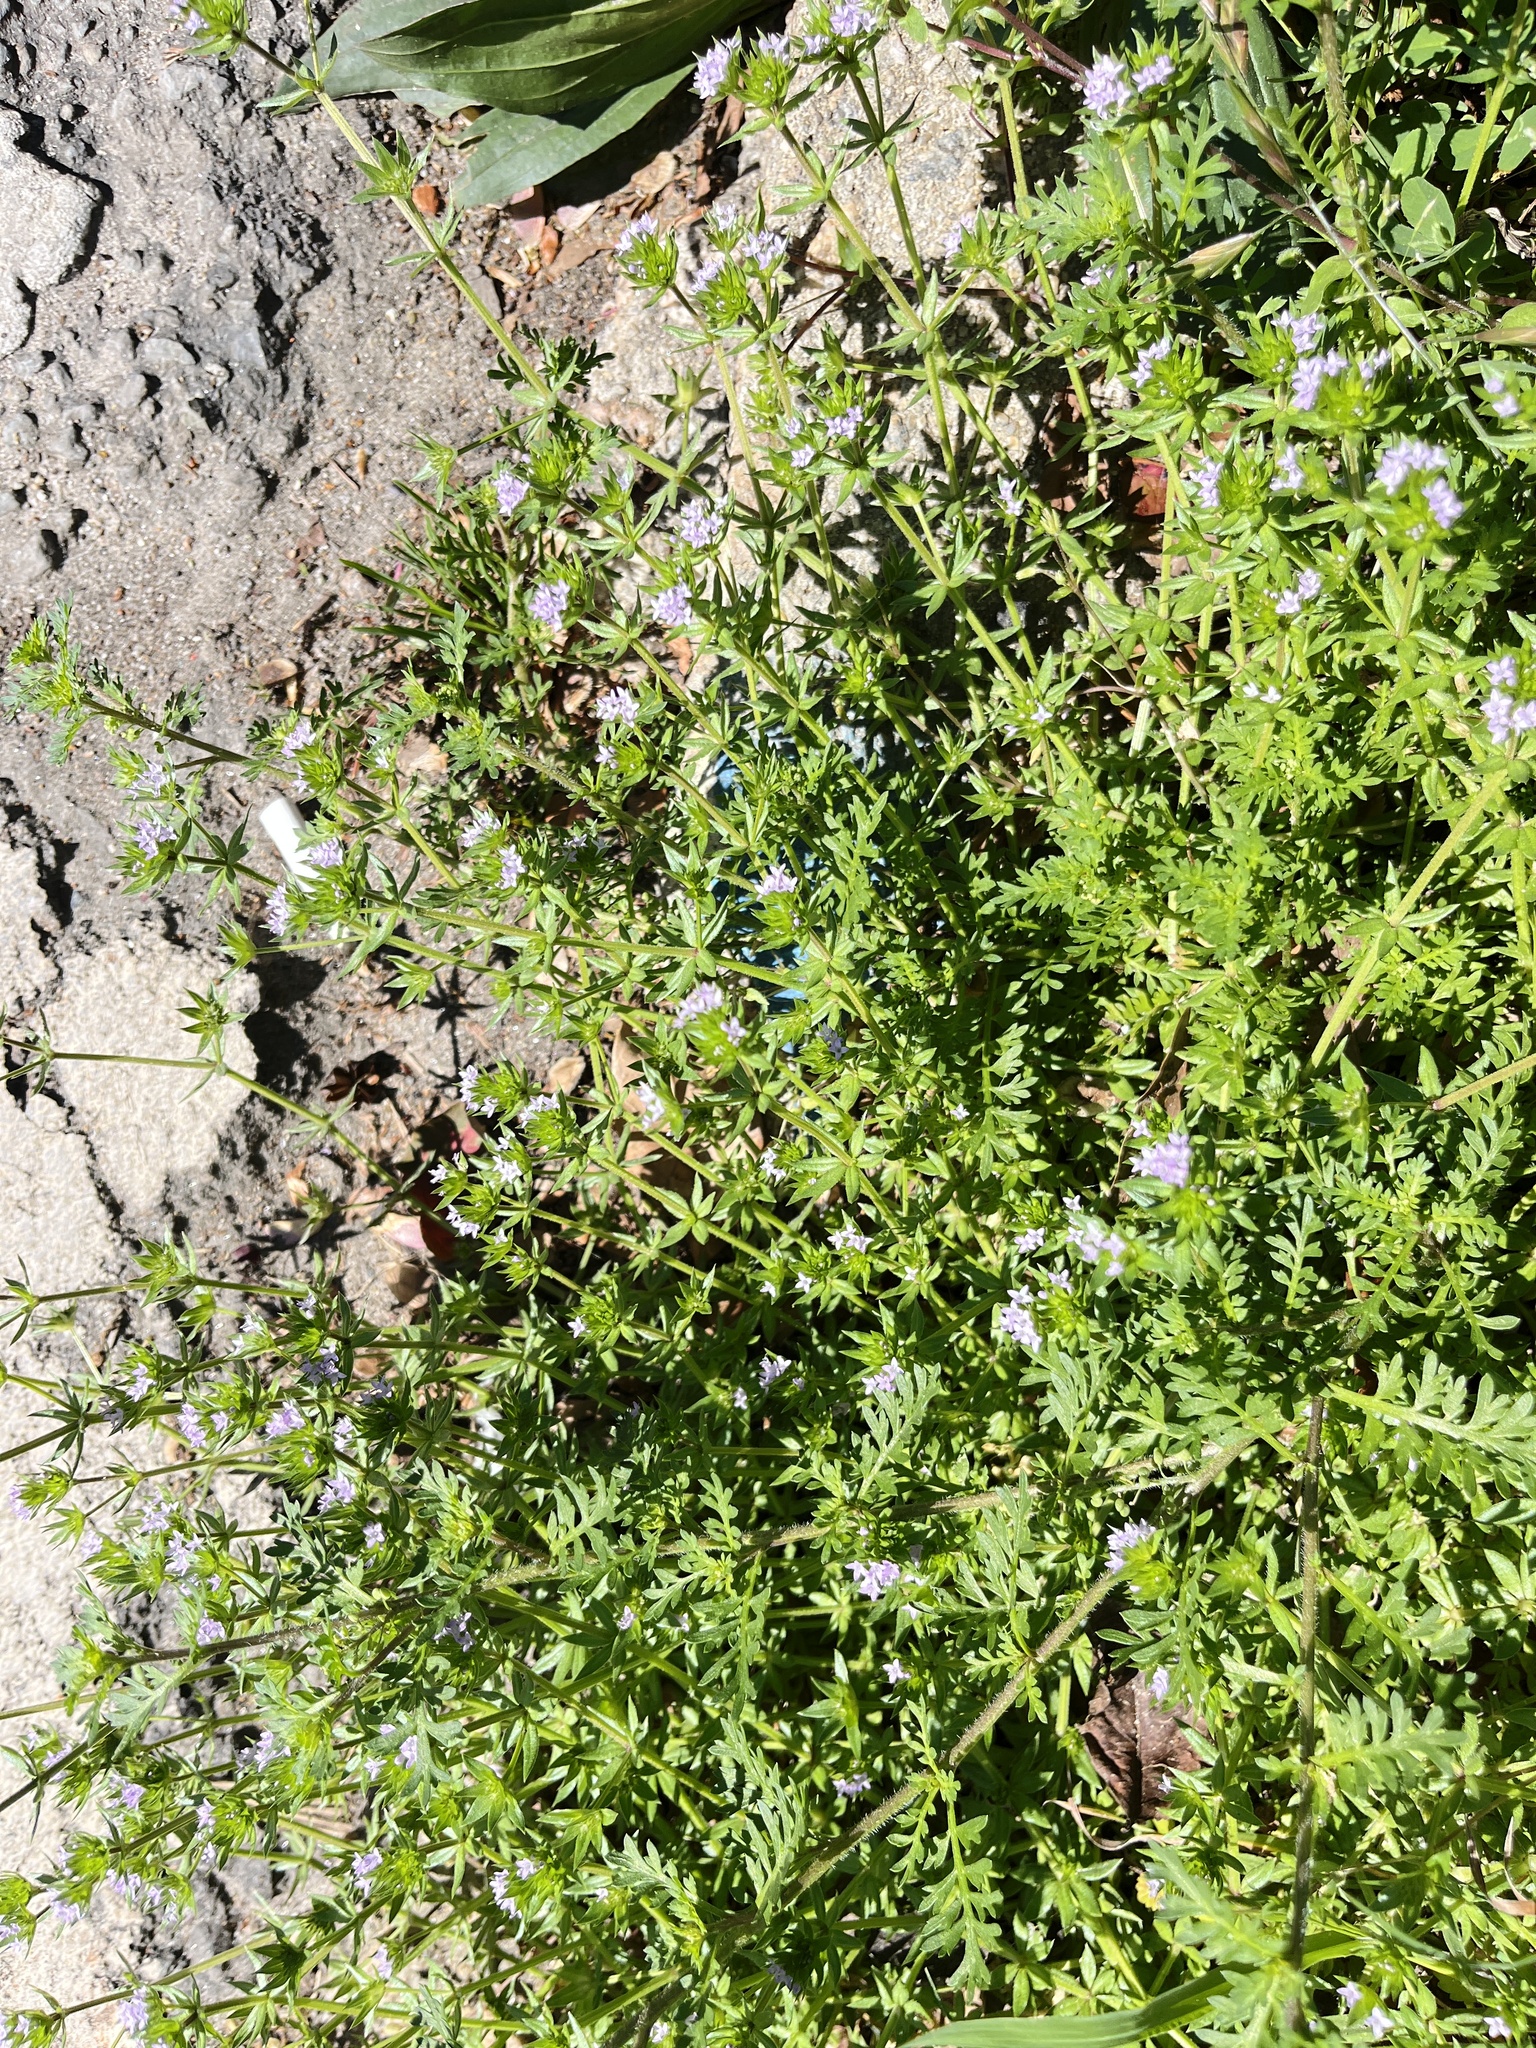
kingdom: Plantae
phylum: Tracheophyta
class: Magnoliopsida
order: Gentianales
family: Rubiaceae
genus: Sherardia
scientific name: Sherardia arvensis
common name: Field madder
